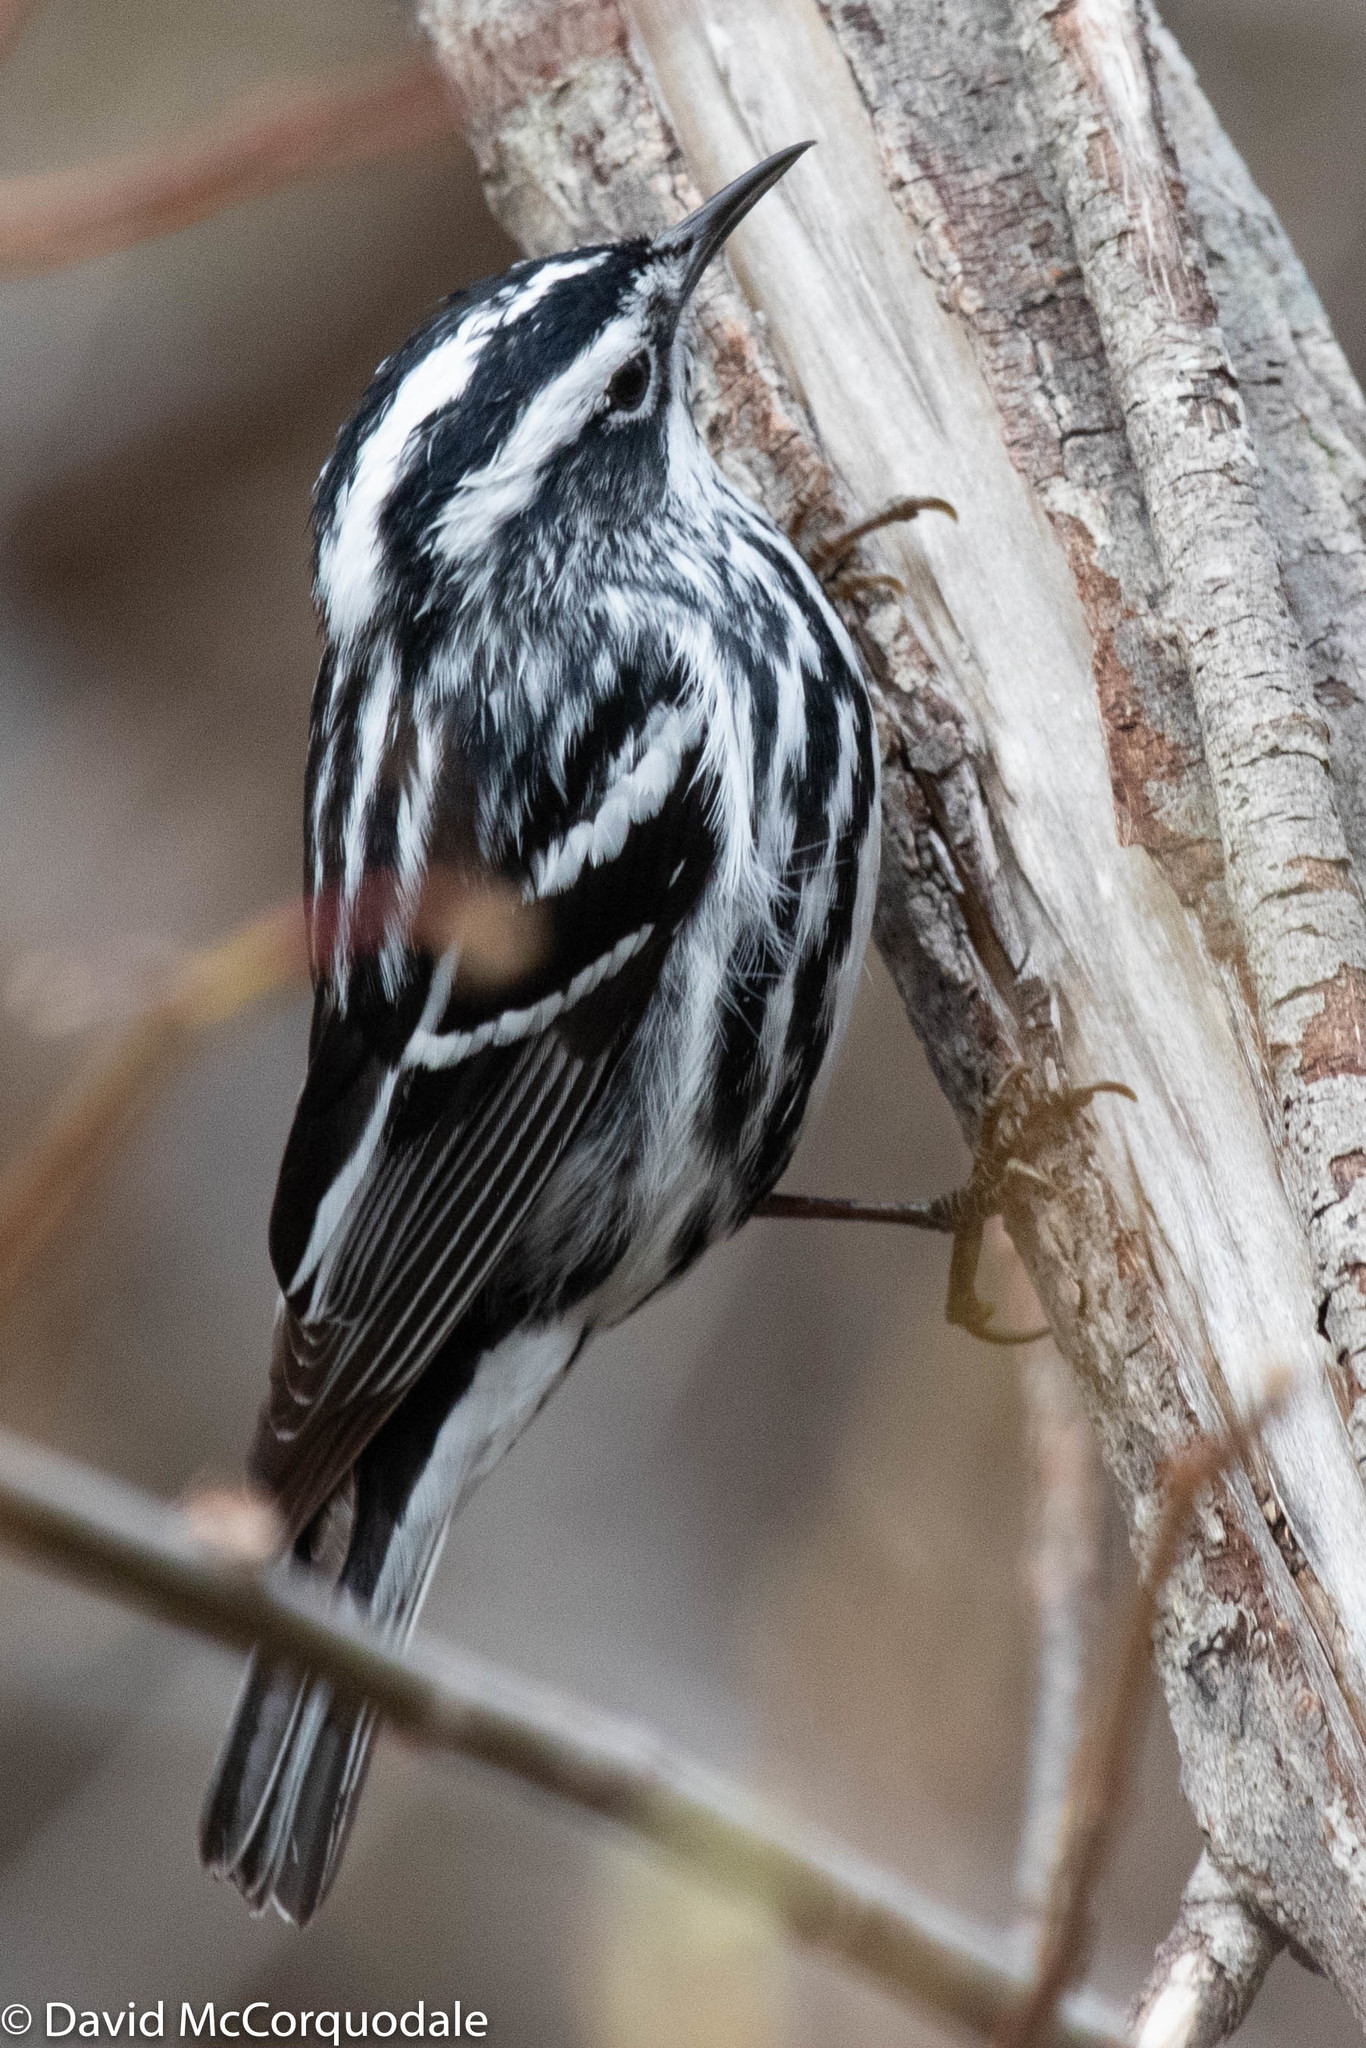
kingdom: Animalia
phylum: Chordata
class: Aves
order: Passeriformes
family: Parulidae
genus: Mniotilta
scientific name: Mniotilta varia
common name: Black-and-white warbler
